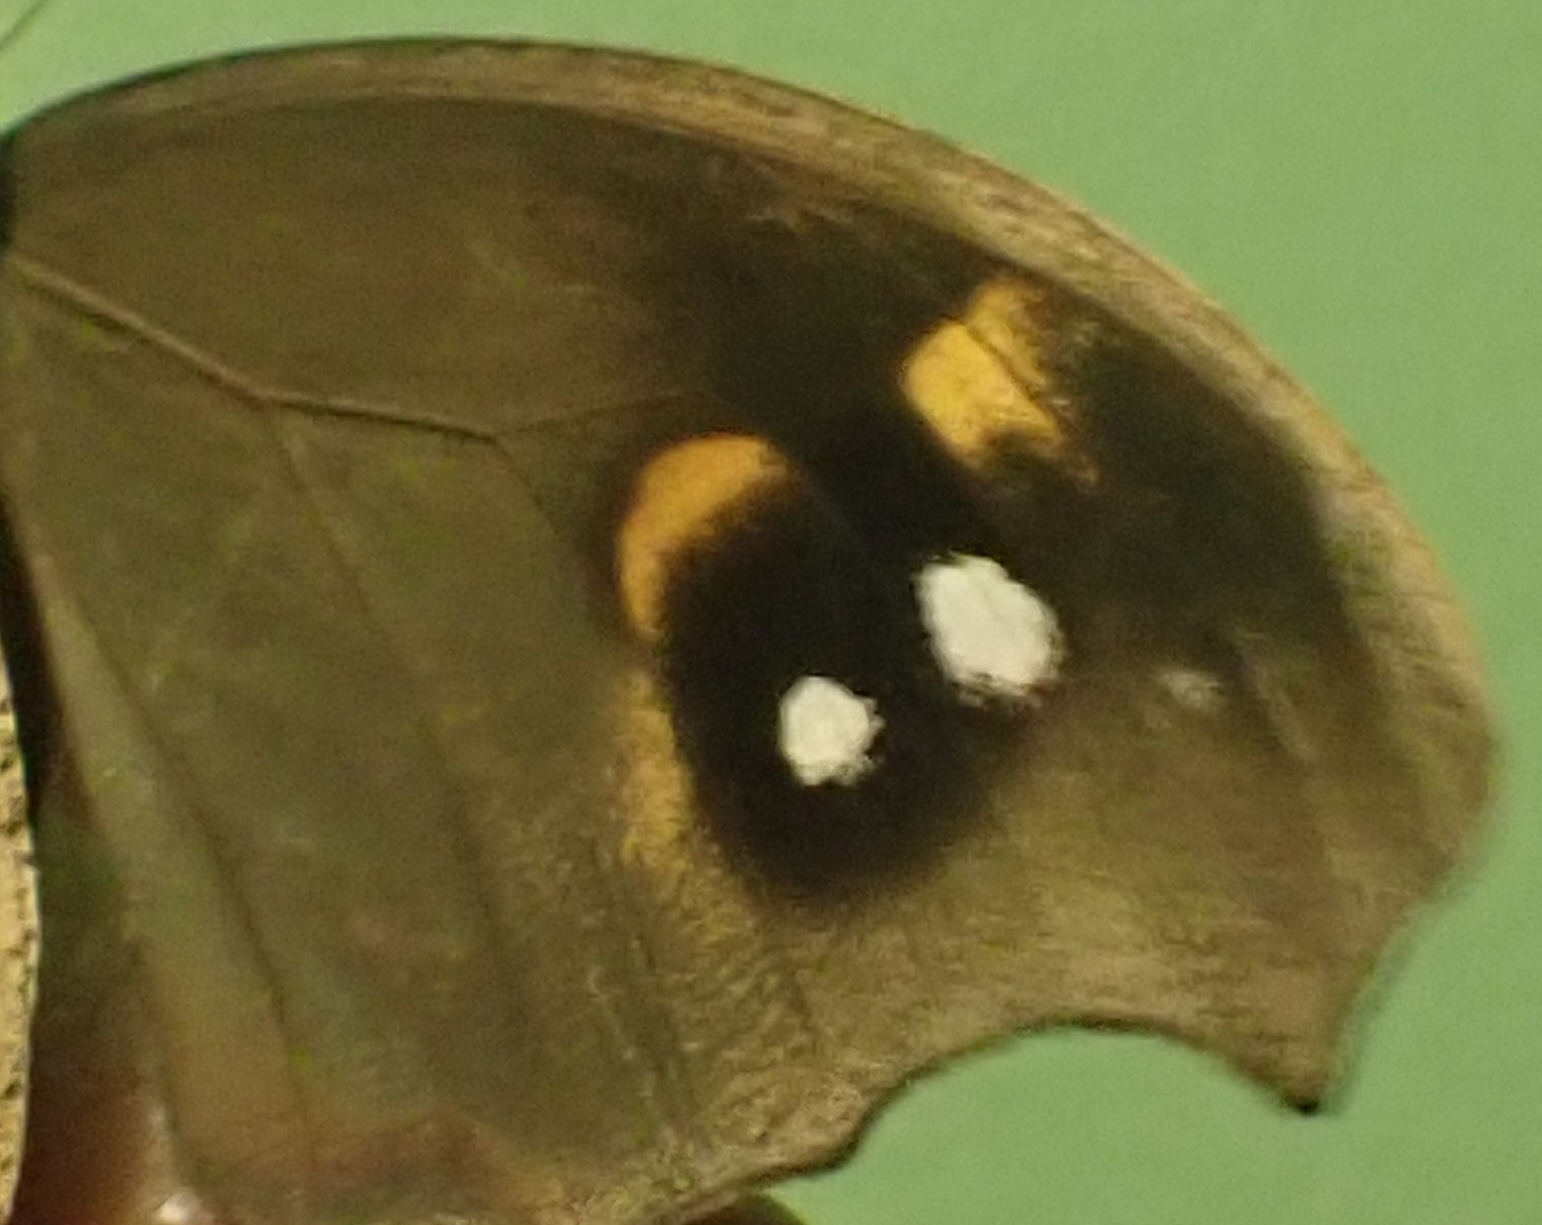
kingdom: Animalia
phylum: Arthropoda
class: Insecta
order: Lepidoptera
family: Nymphalidae
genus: Melanitis
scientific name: Melanitis leda
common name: Twilight brown
